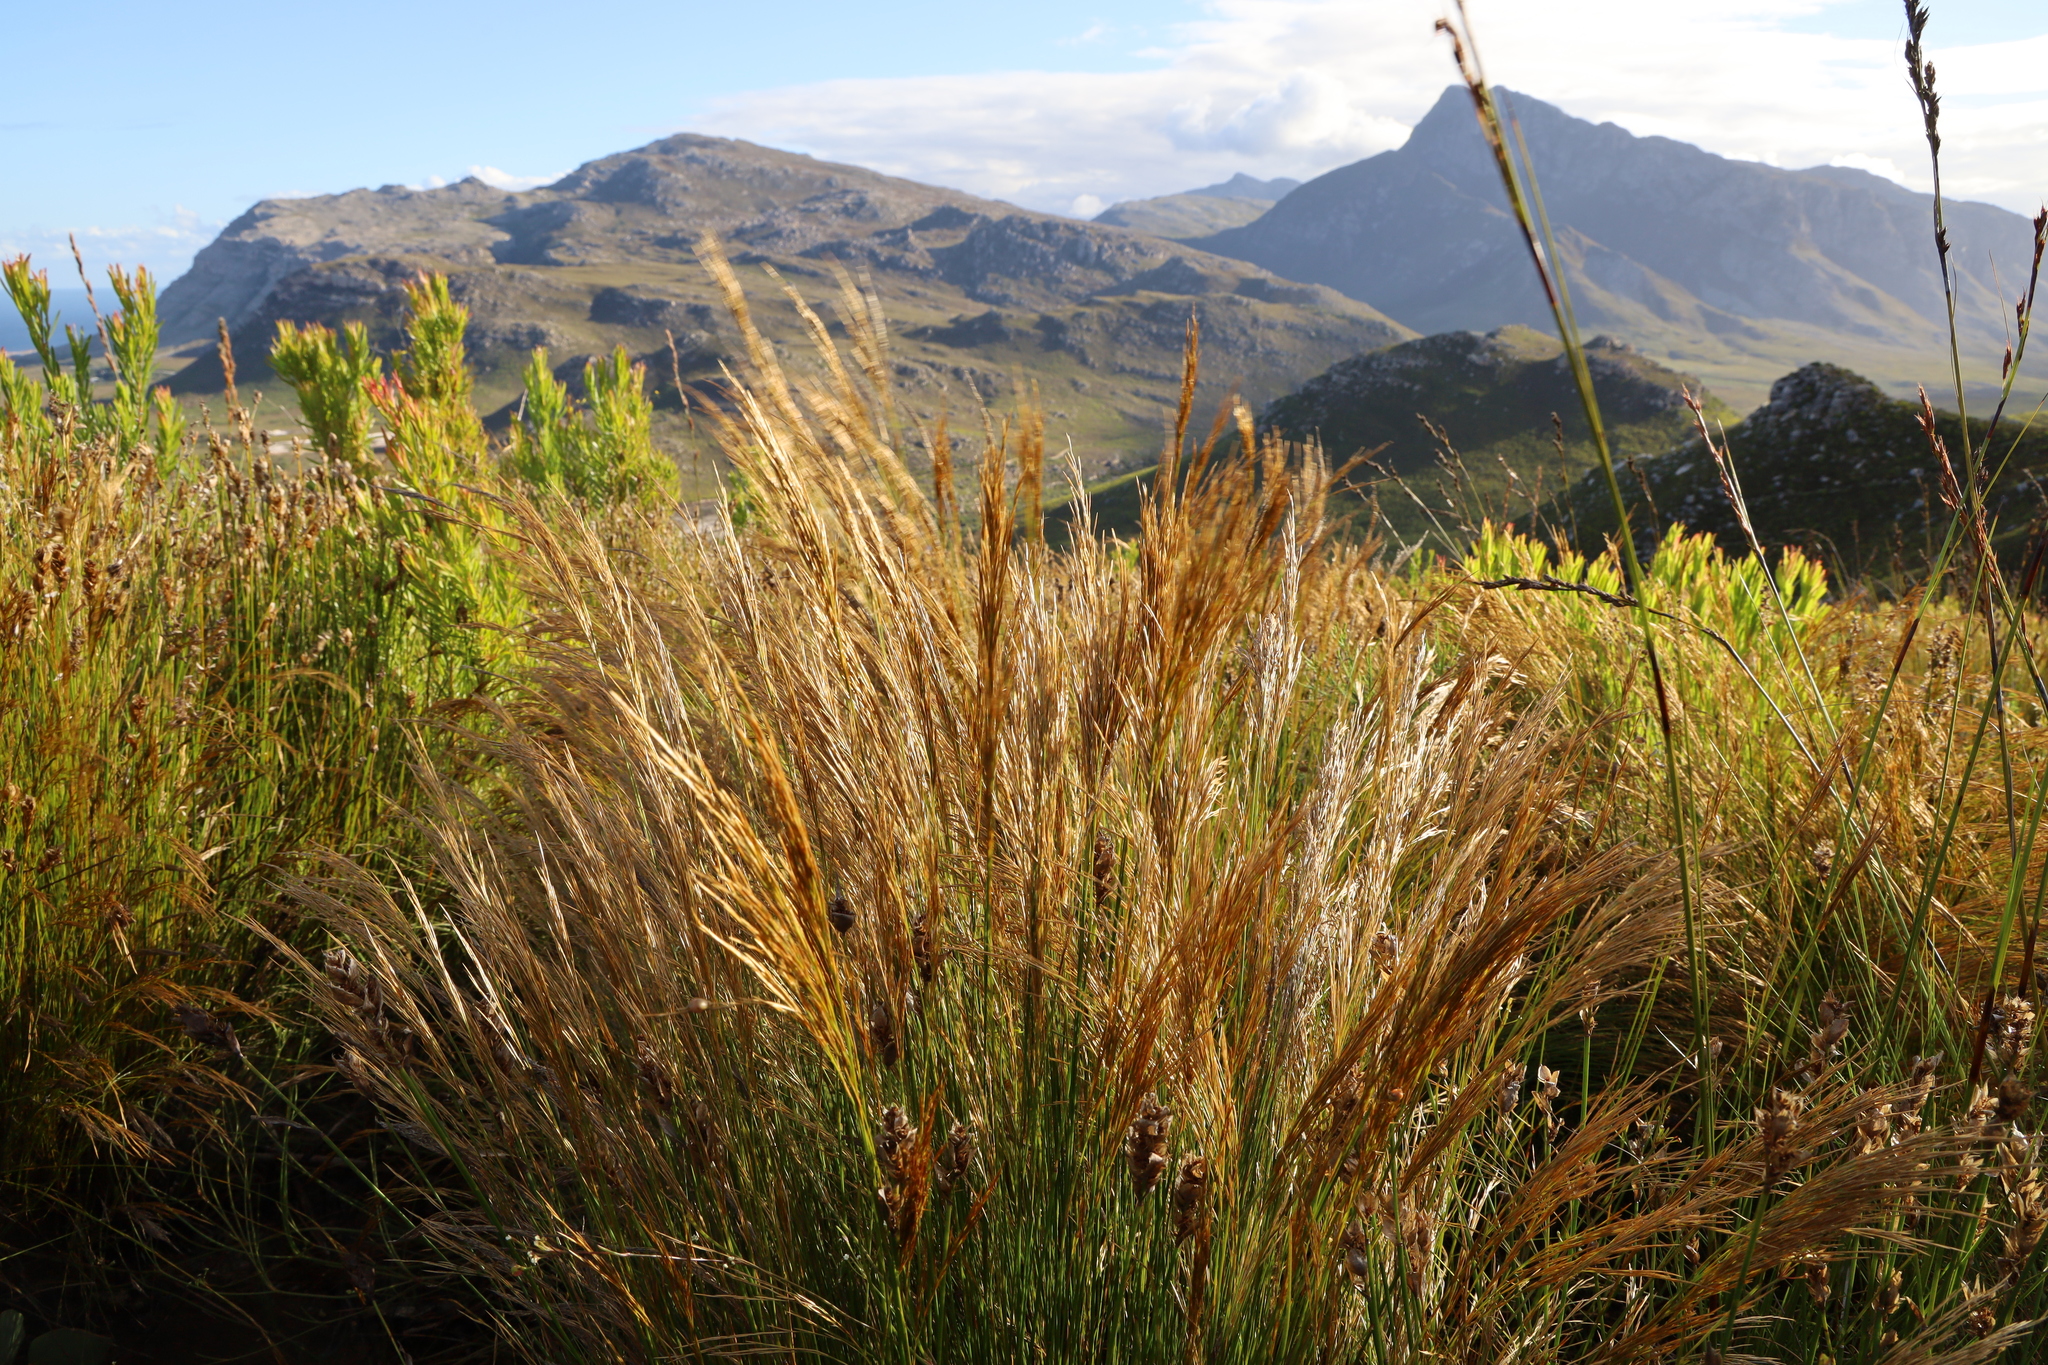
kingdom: Plantae
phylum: Tracheophyta
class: Liliopsida
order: Poales
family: Restionaceae
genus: Restio
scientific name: Restio festuciformis
